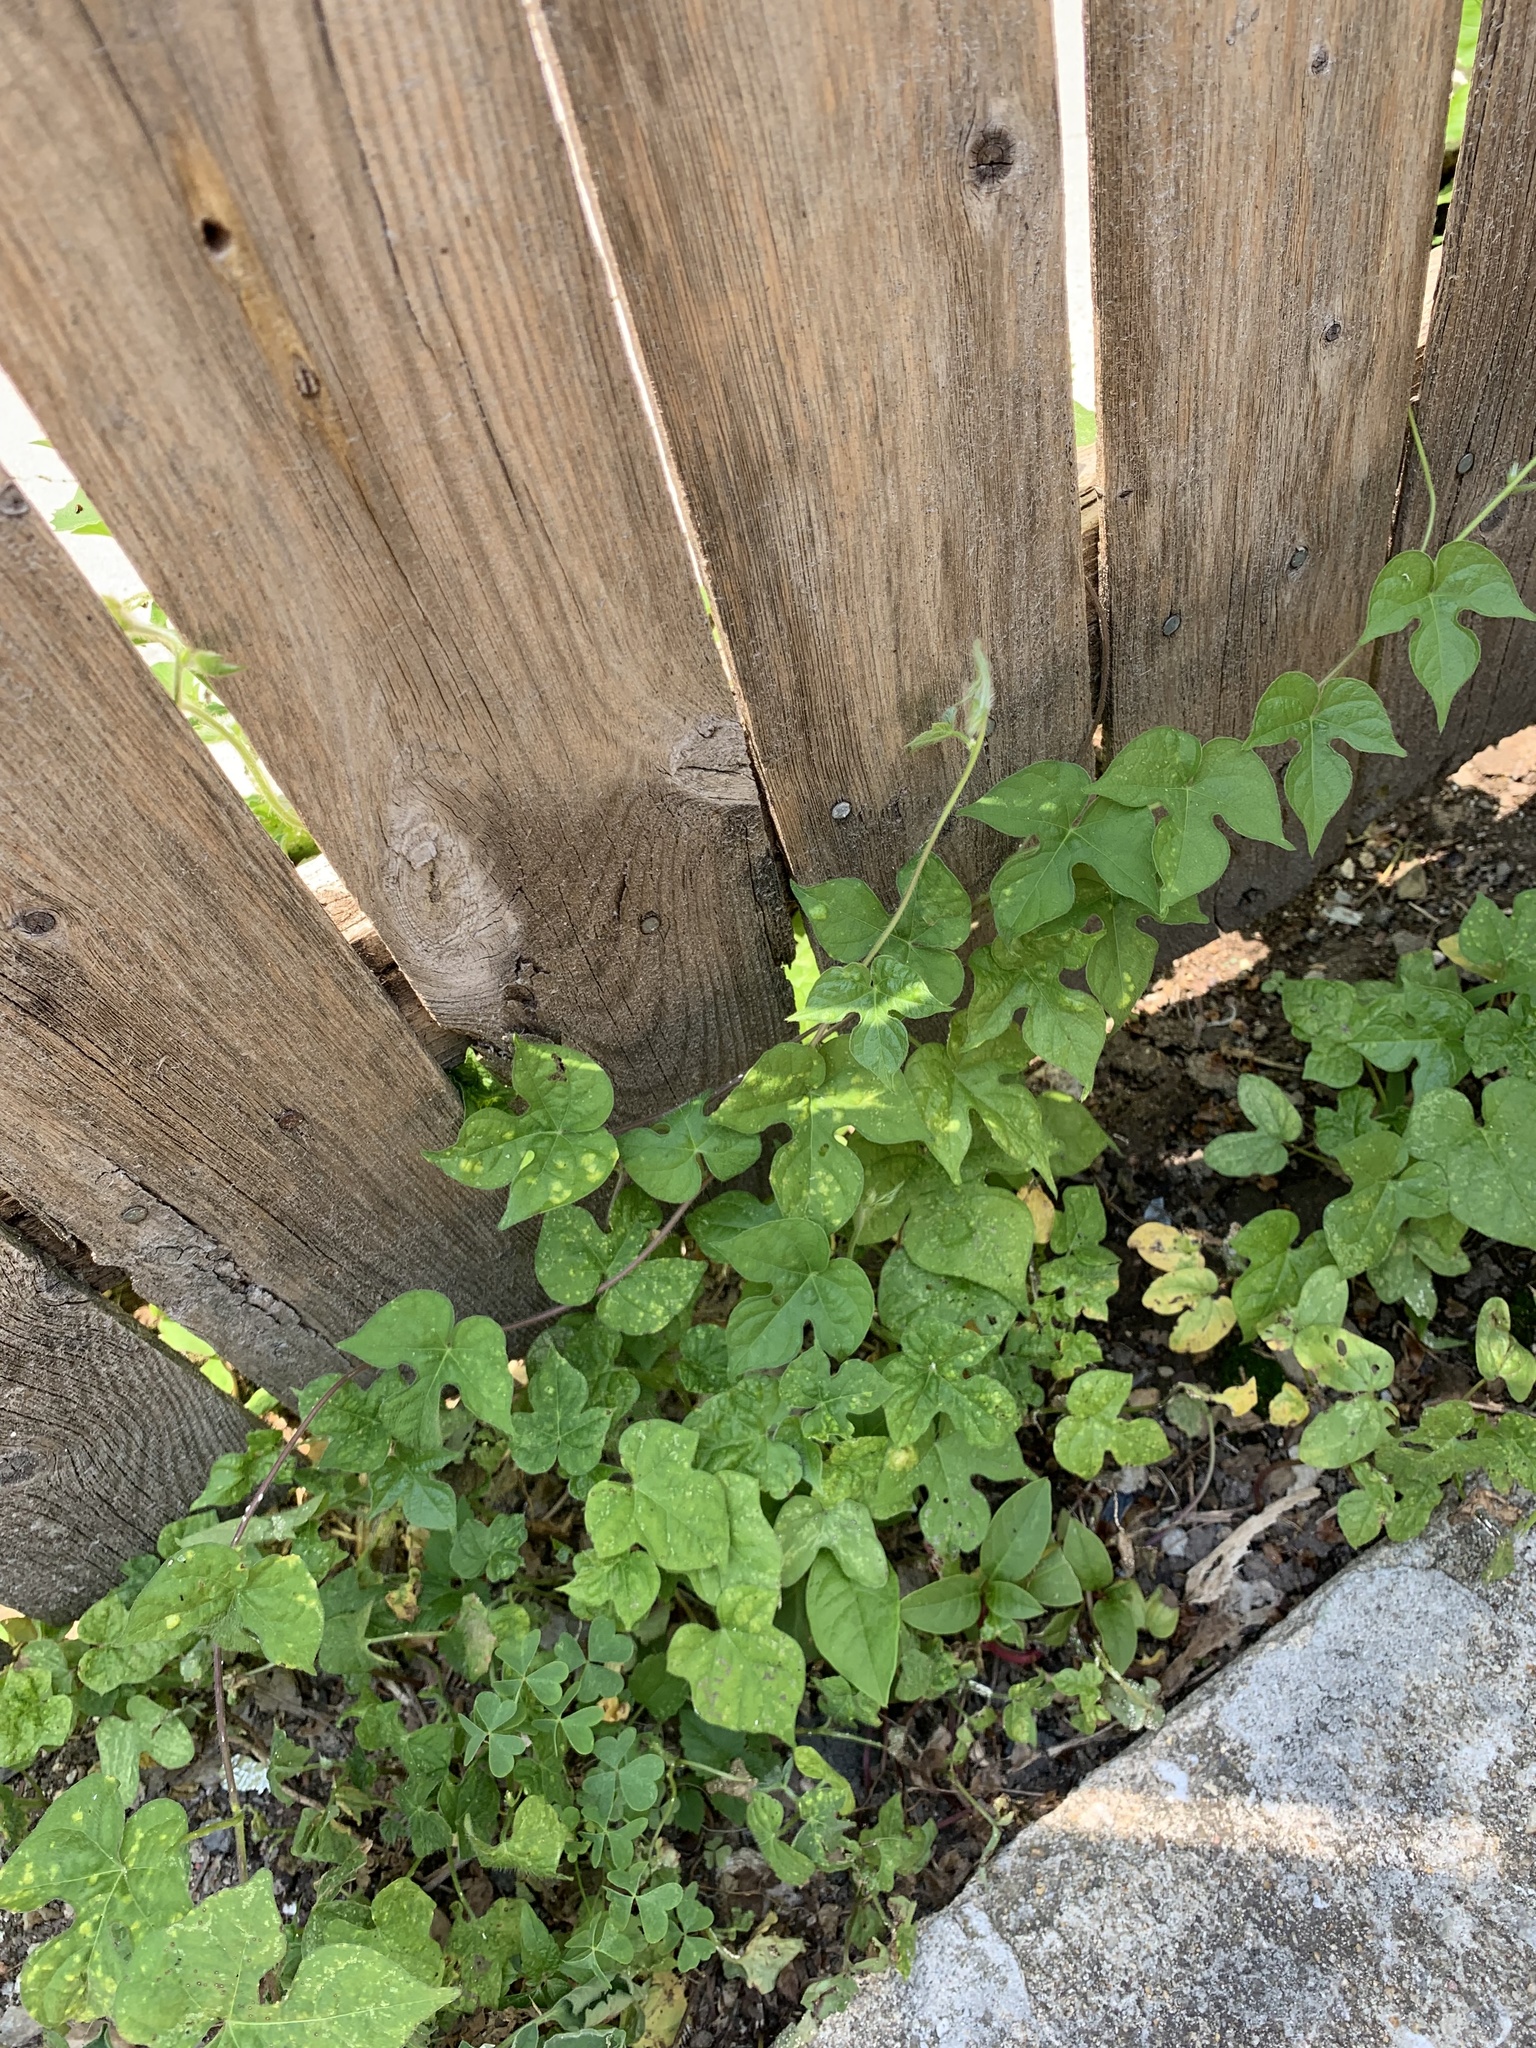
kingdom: Plantae
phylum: Tracheophyta
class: Magnoliopsida
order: Solanales
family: Convolvulaceae
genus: Ipomoea
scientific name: Ipomoea hederacea
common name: Ivy-leaved morning-glory
